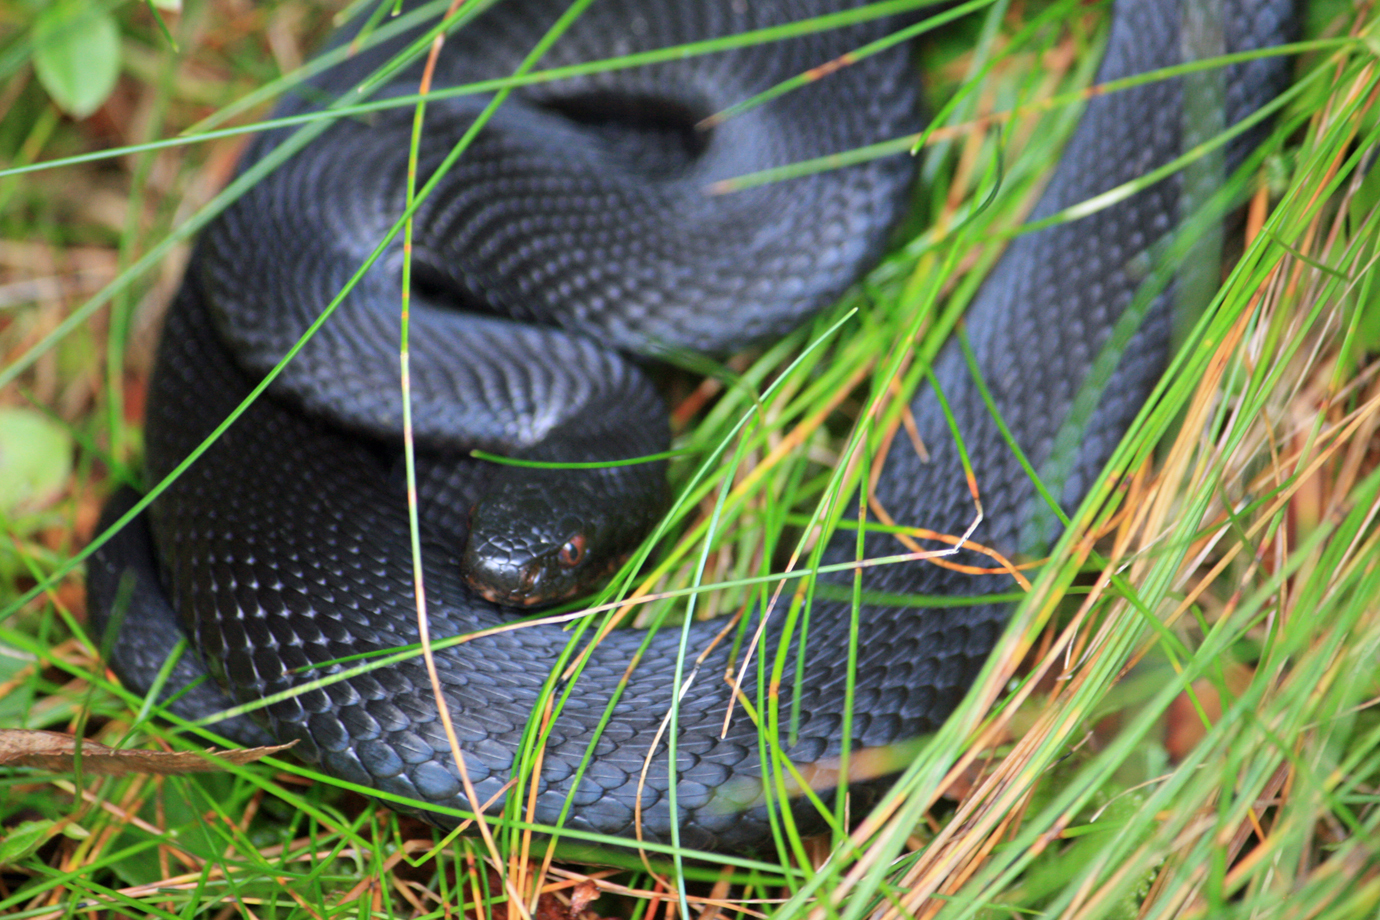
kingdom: Animalia
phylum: Chordata
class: Squamata
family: Viperidae
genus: Vipera
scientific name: Vipera berus
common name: Adder
